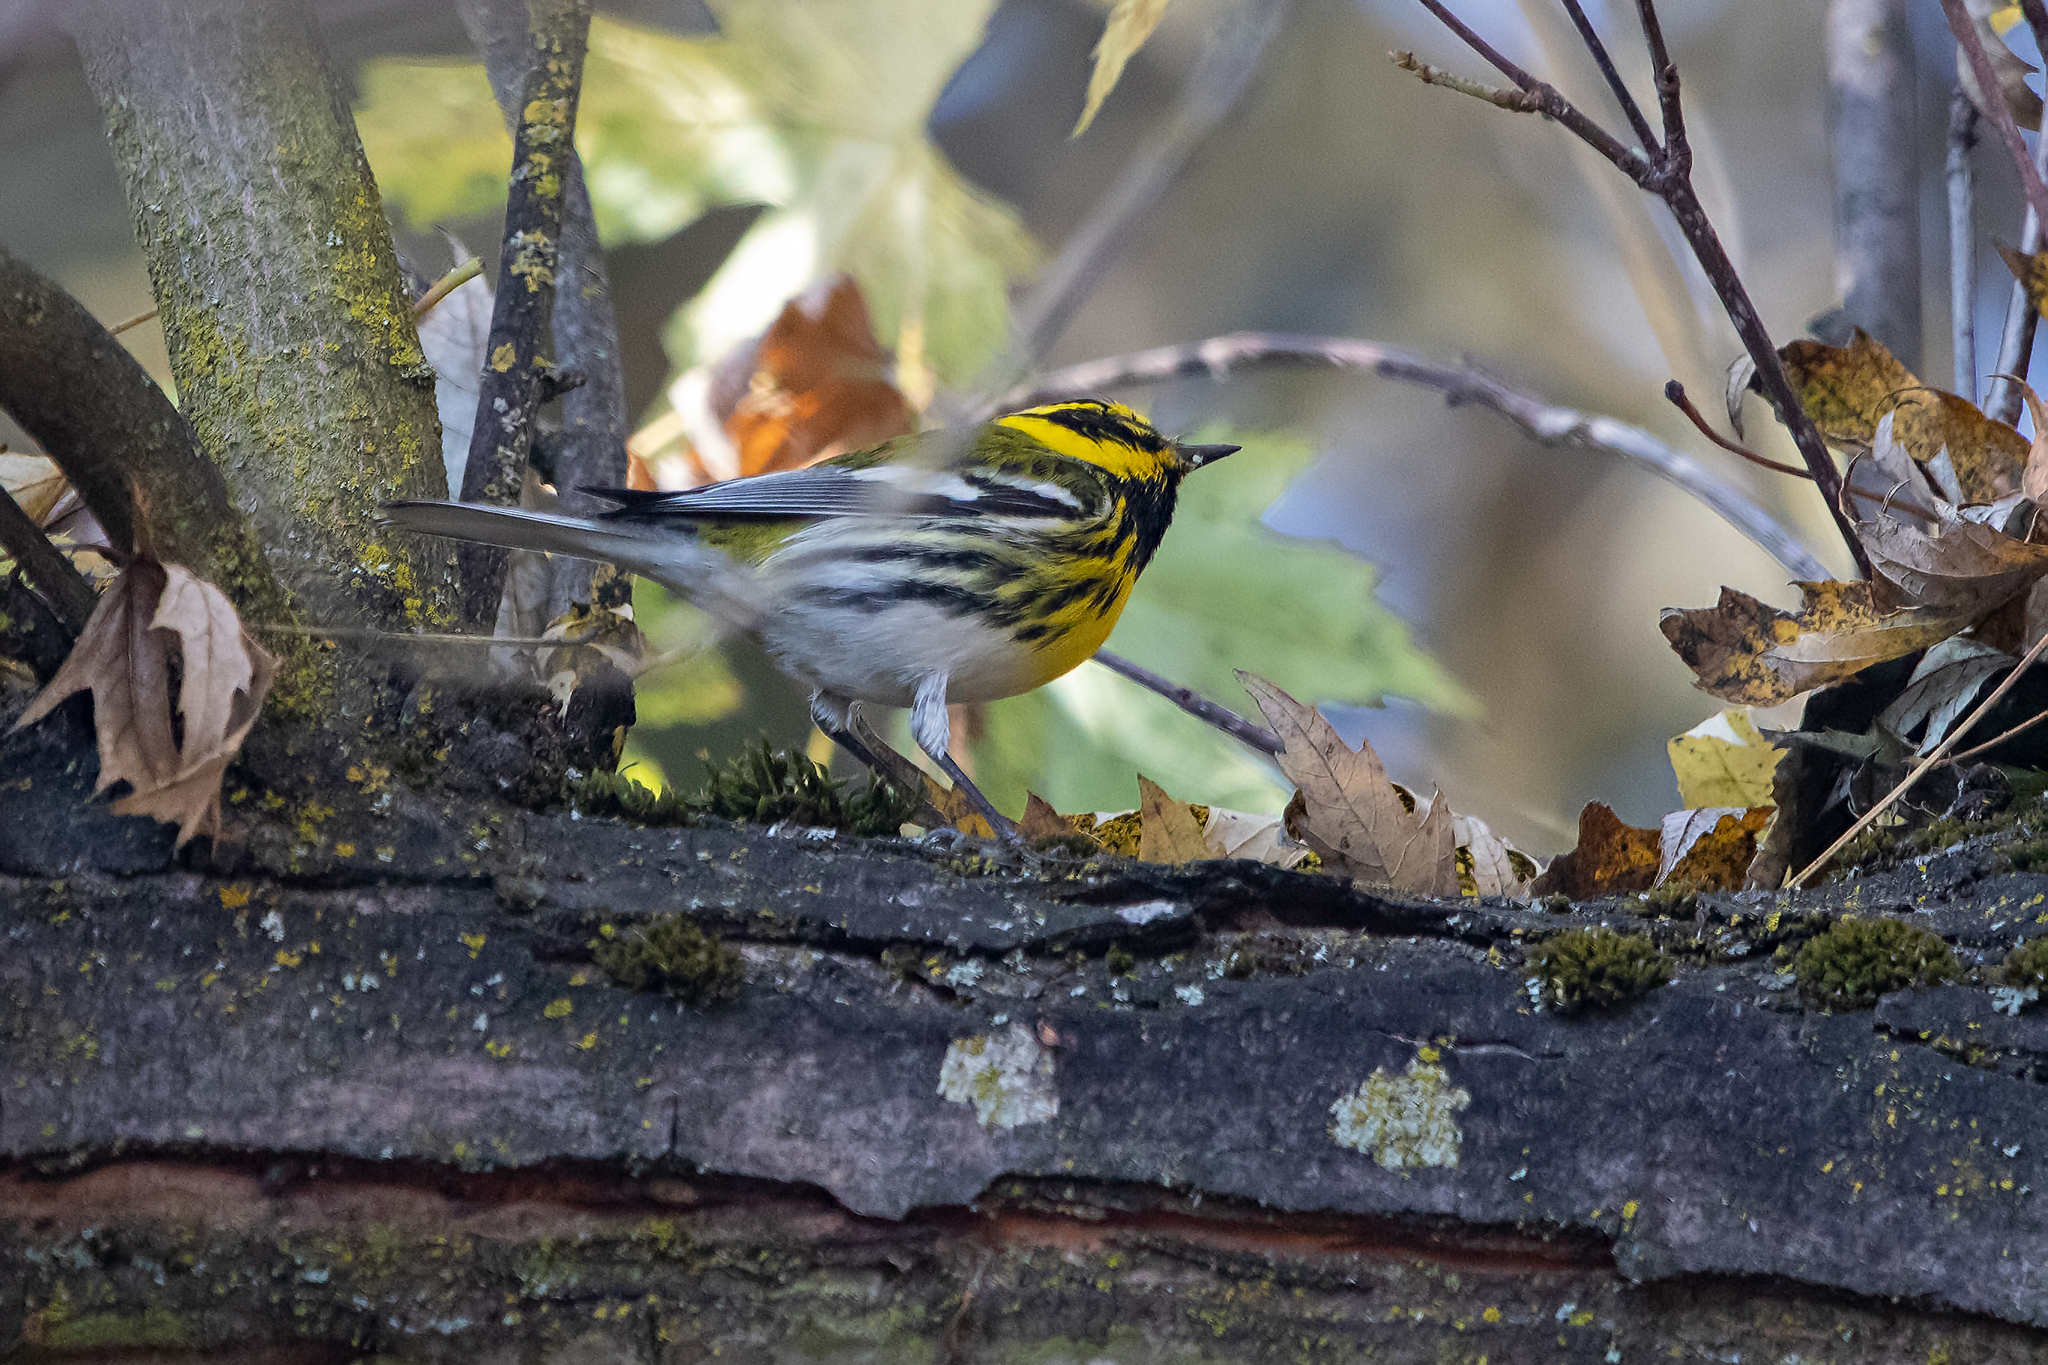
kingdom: Animalia
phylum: Chordata
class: Aves
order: Passeriformes
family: Parulidae
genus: Setophaga
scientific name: Setophaga townsendi
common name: Townsend's warbler
